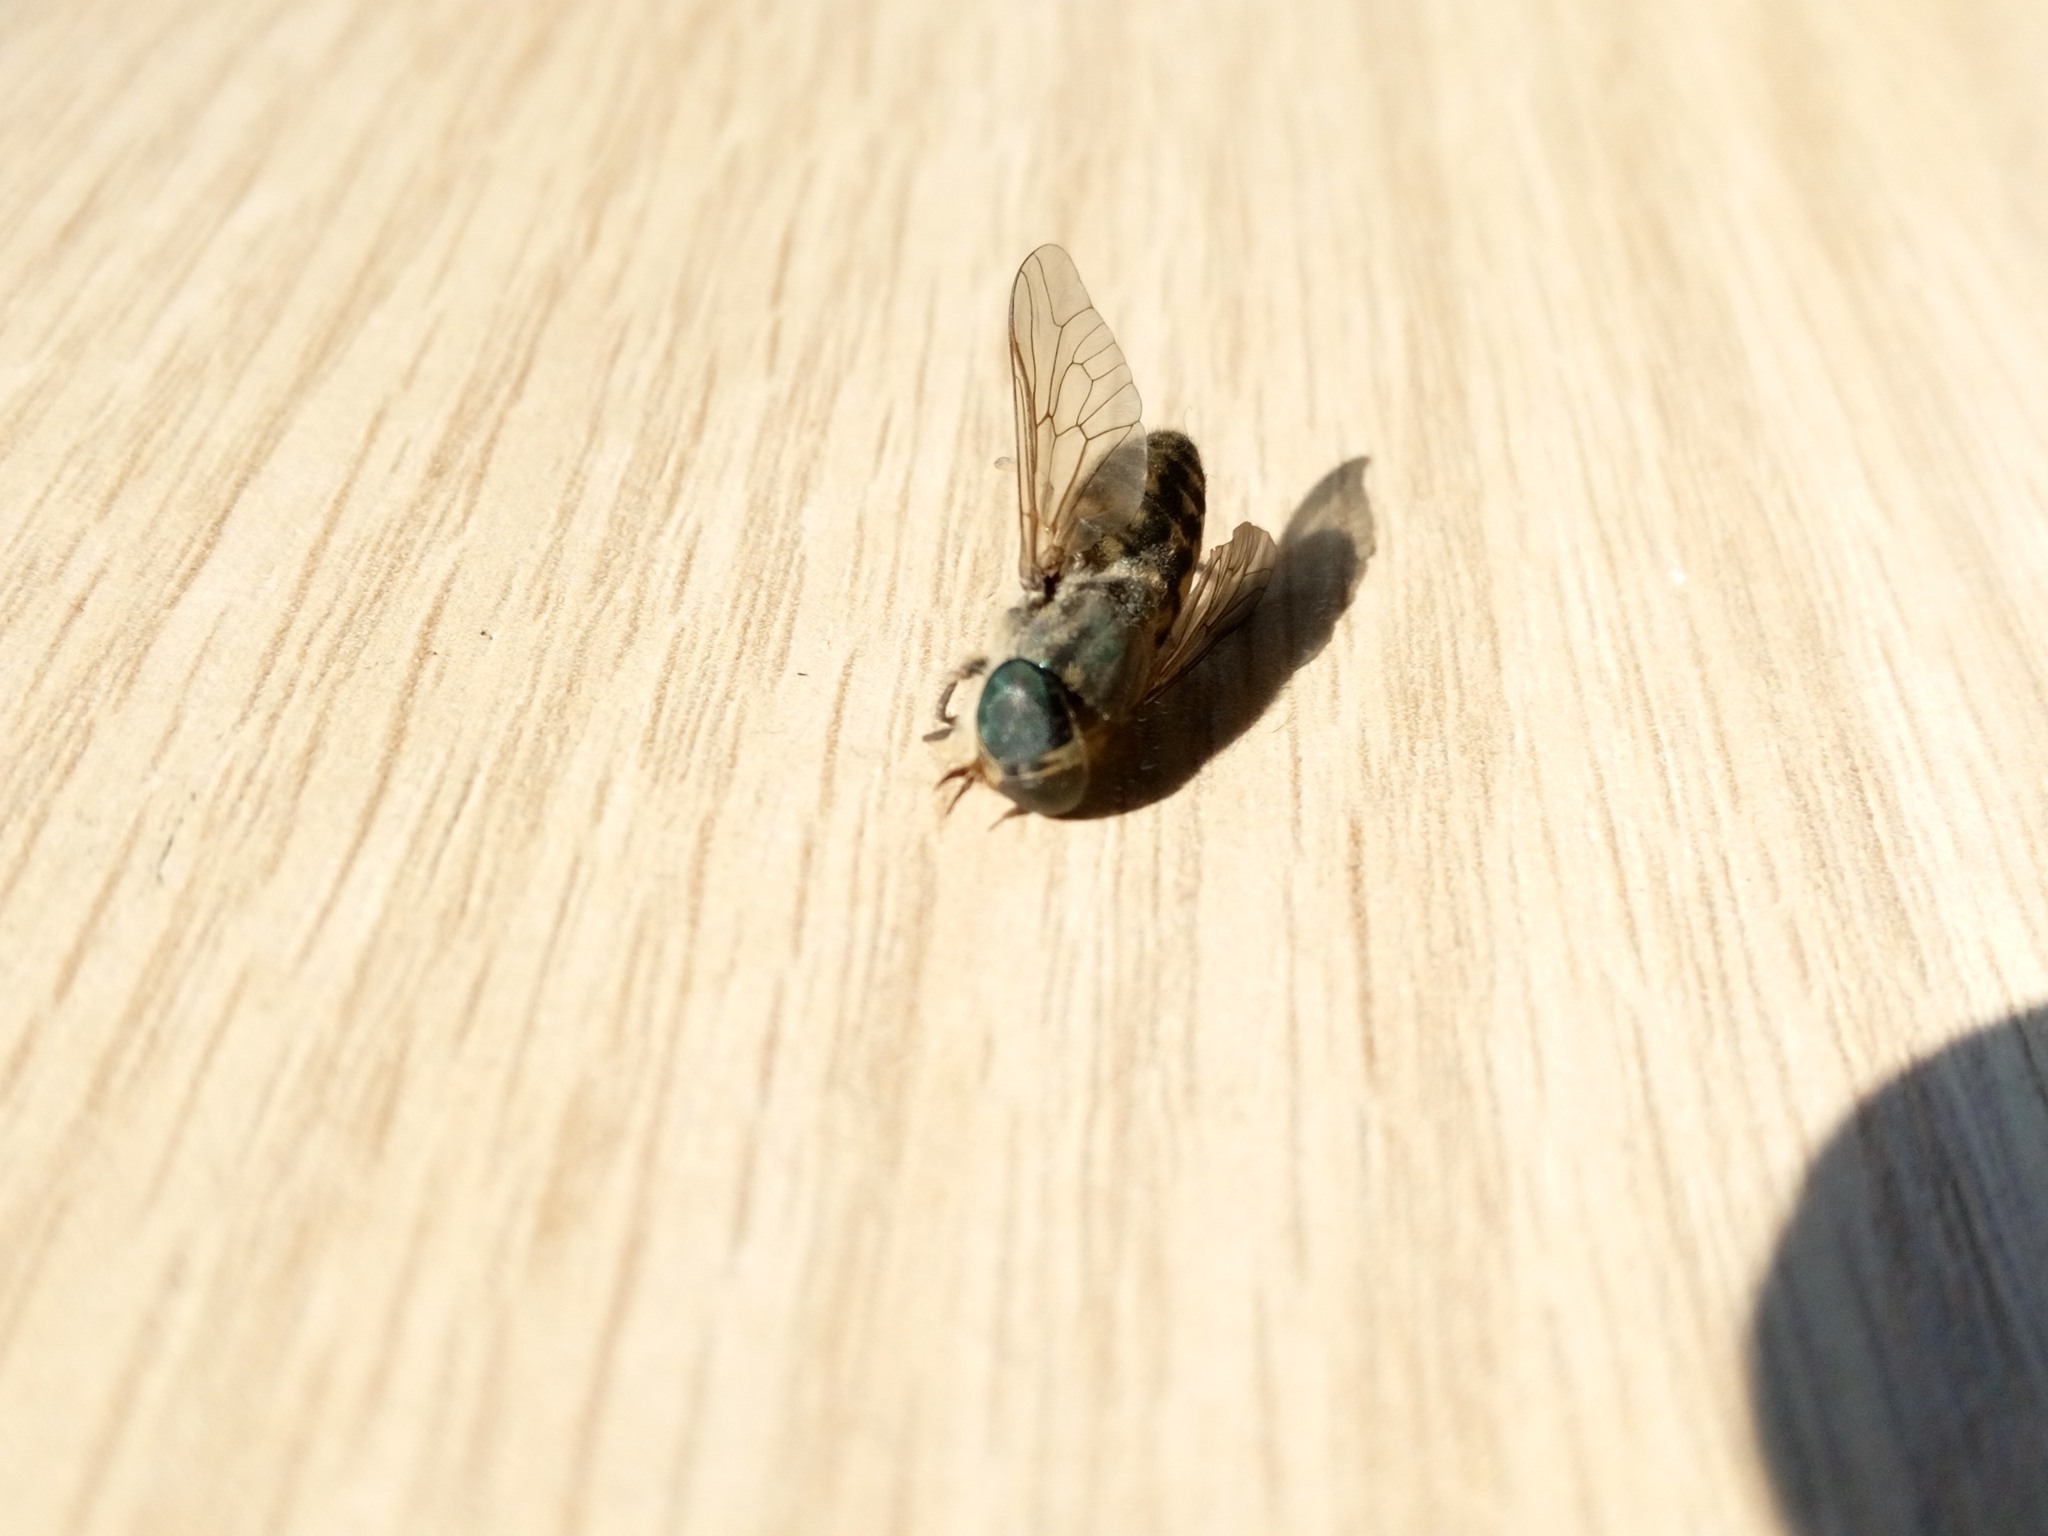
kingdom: Animalia
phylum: Arthropoda
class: Insecta
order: Diptera
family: Tabanidae
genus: Tabanus
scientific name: Tabanus bromius
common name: Band-eyed brown horsefly
